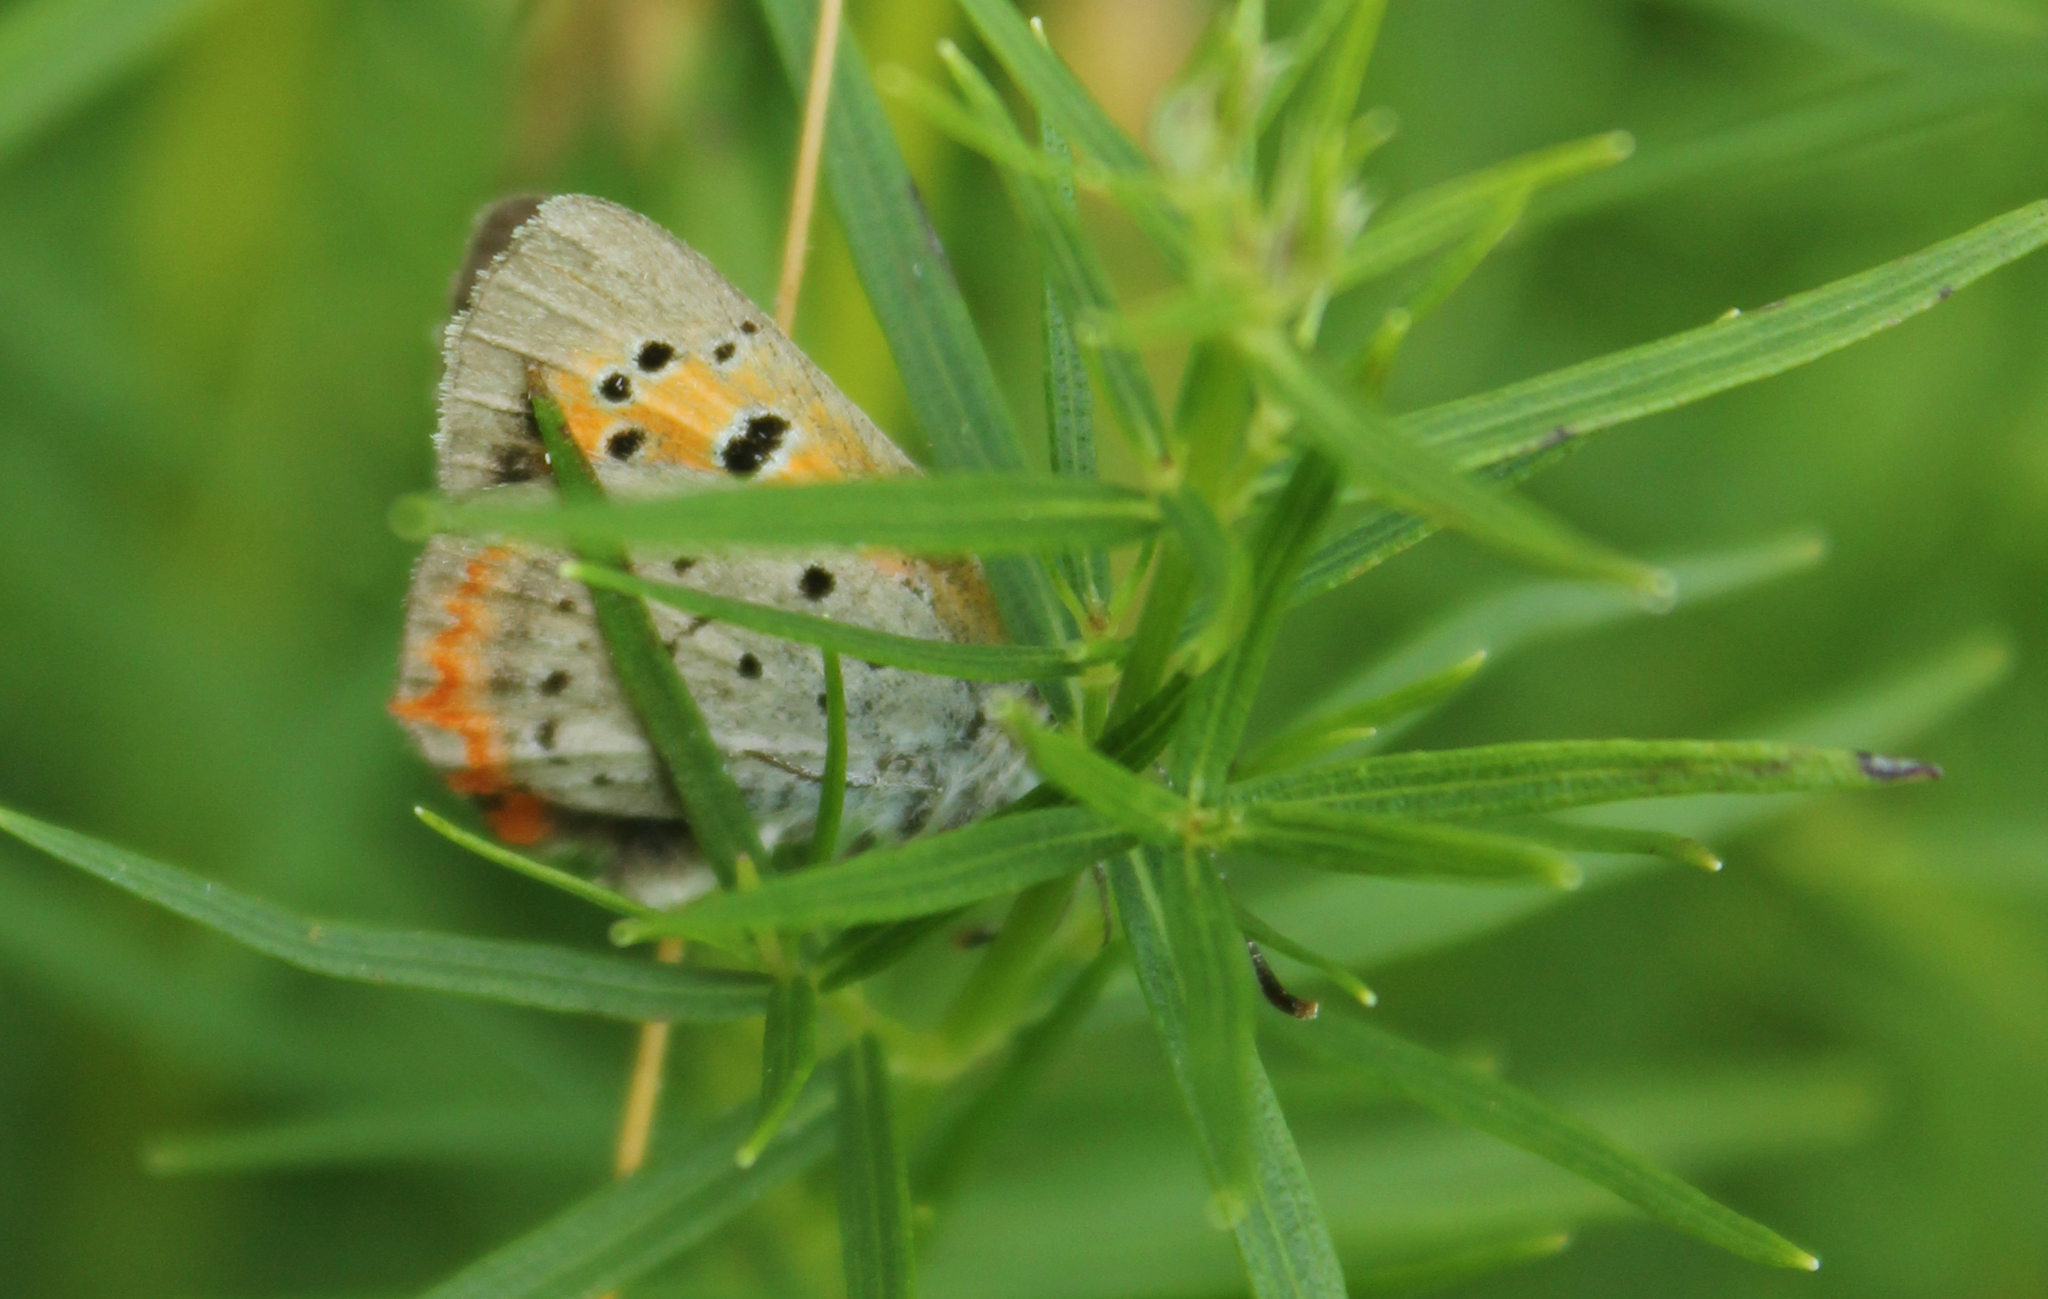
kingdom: Animalia
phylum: Arthropoda
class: Insecta
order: Lepidoptera
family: Lycaenidae
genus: Lycaena
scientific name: Lycaena hypophlaeas
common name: American copper
